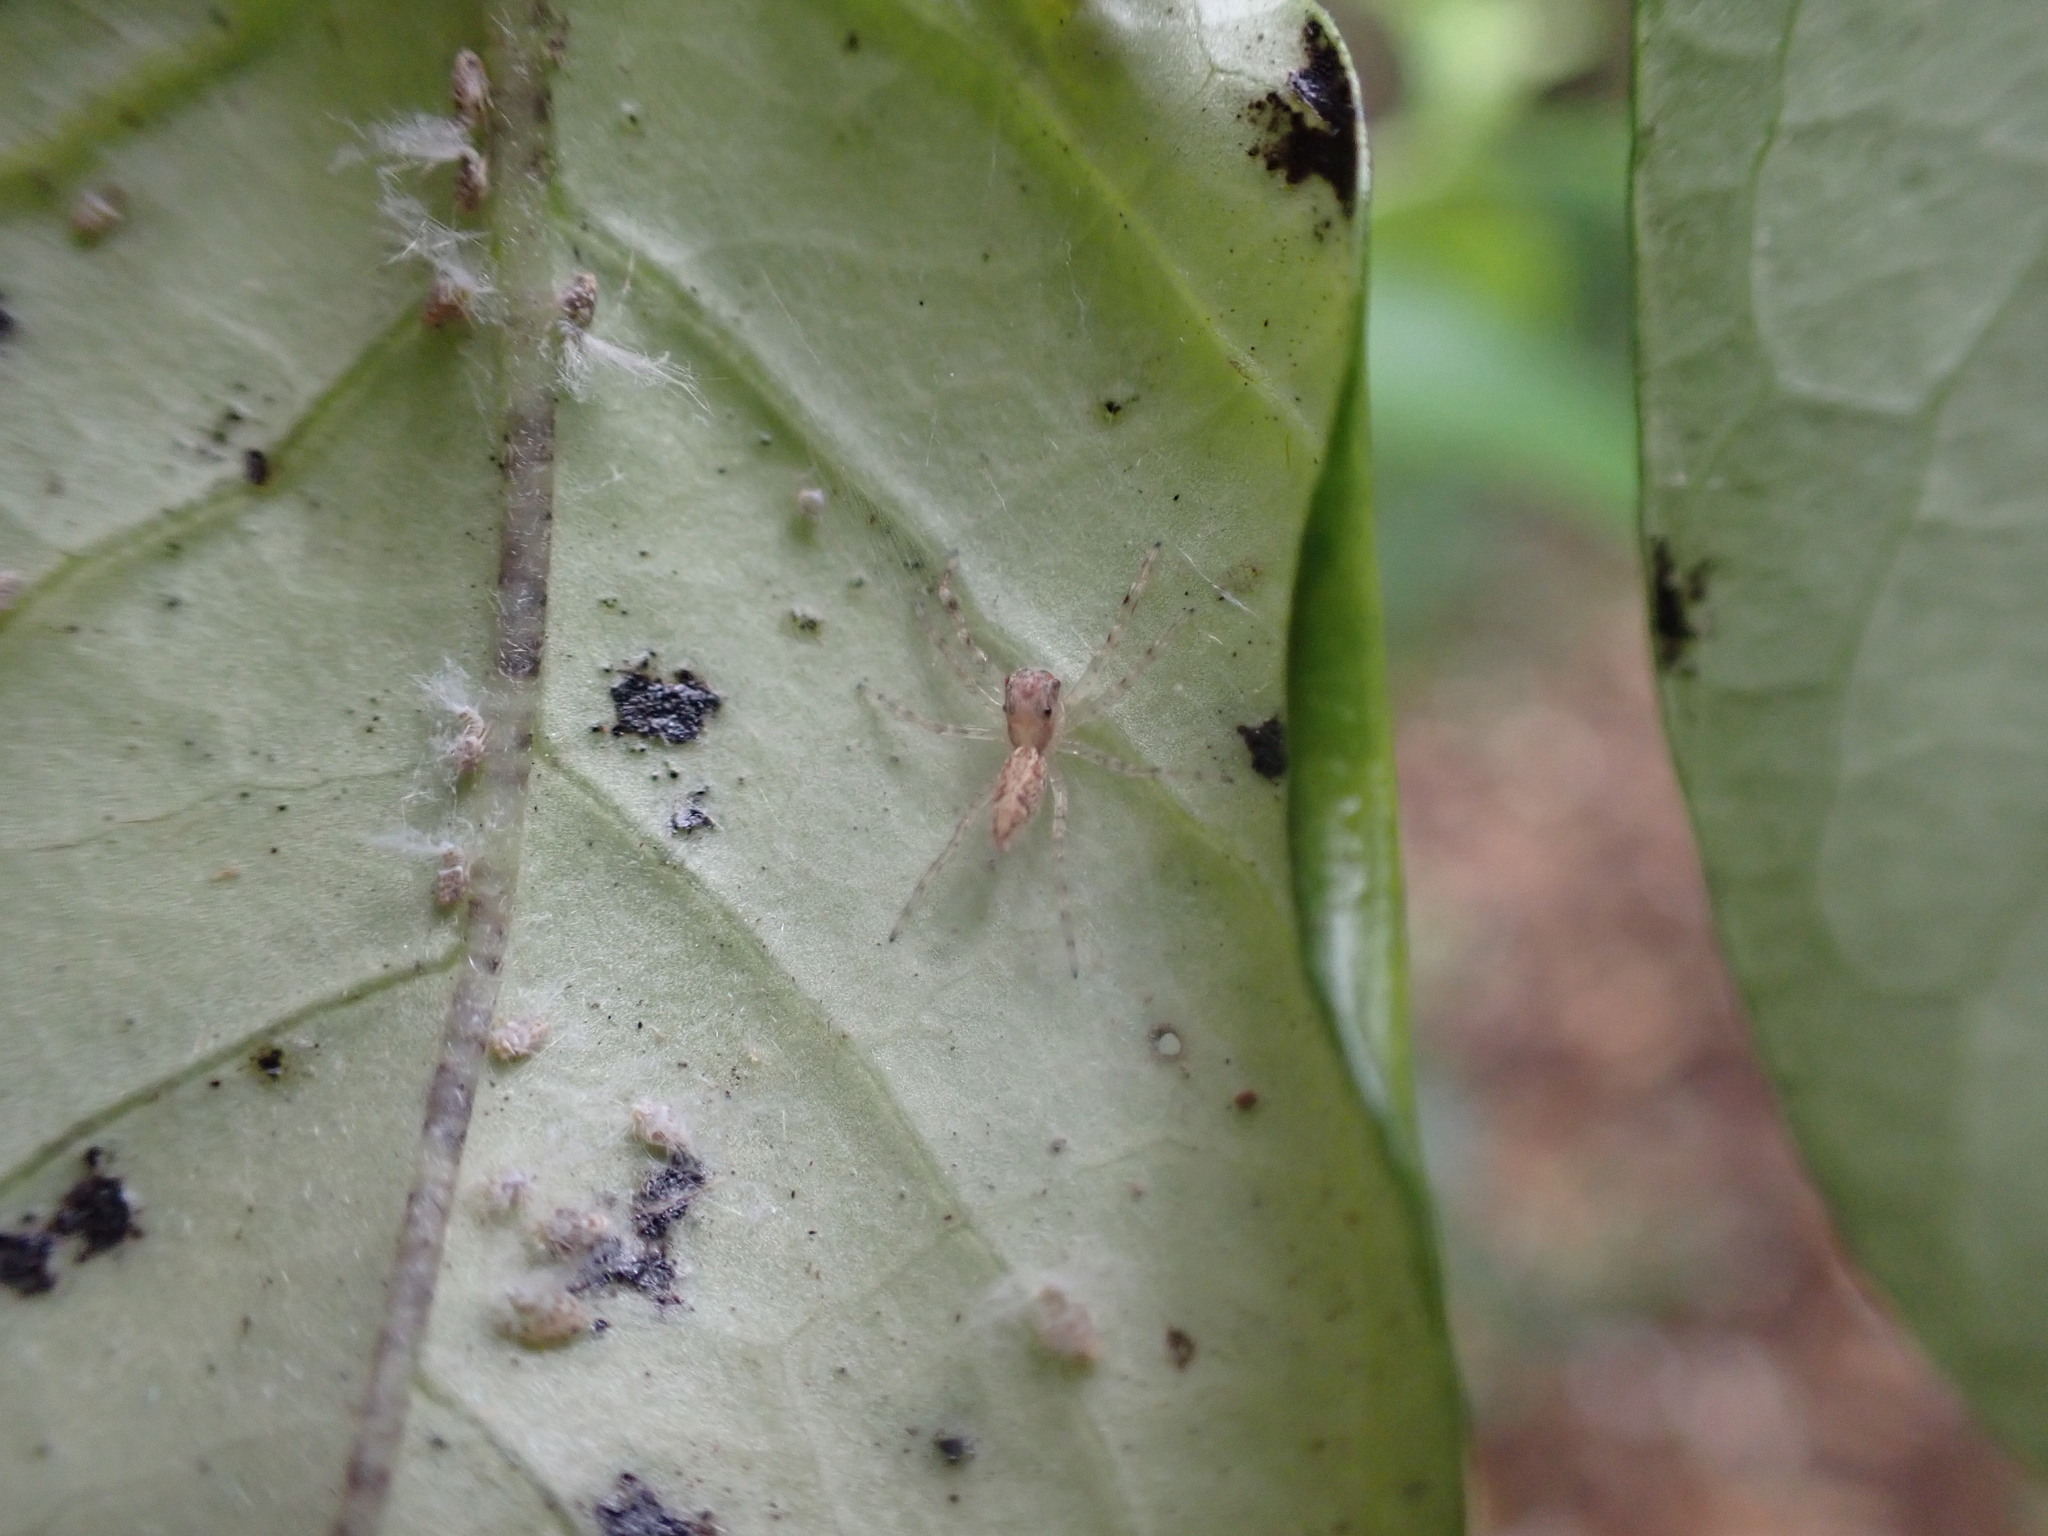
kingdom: Animalia
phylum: Arthropoda
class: Arachnida
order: Araneae
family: Salticidae
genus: Helpis
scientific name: Helpis minitabunda
